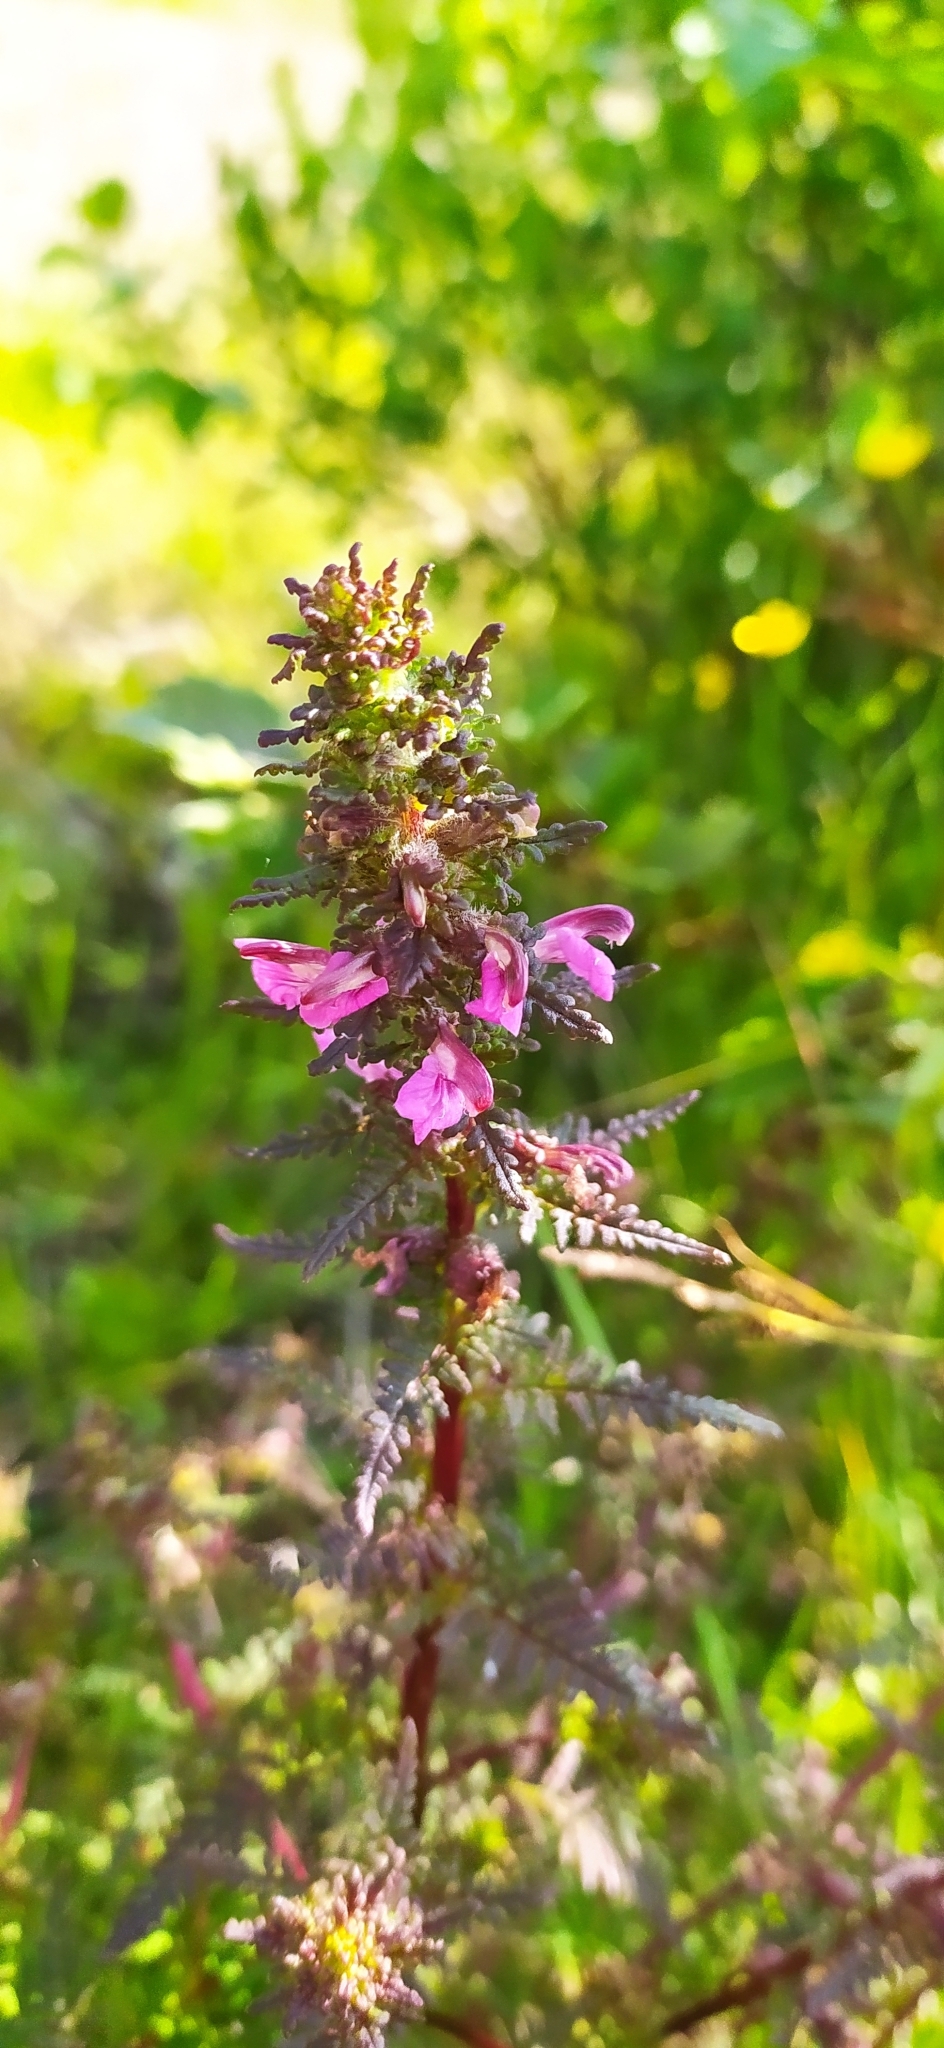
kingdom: Plantae
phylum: Tracheophyta
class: Magnoliopsida
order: Lamiales
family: Orobanchaceae
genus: Pedicularis
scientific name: Pedicularis palustris
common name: Marsh lousewort
